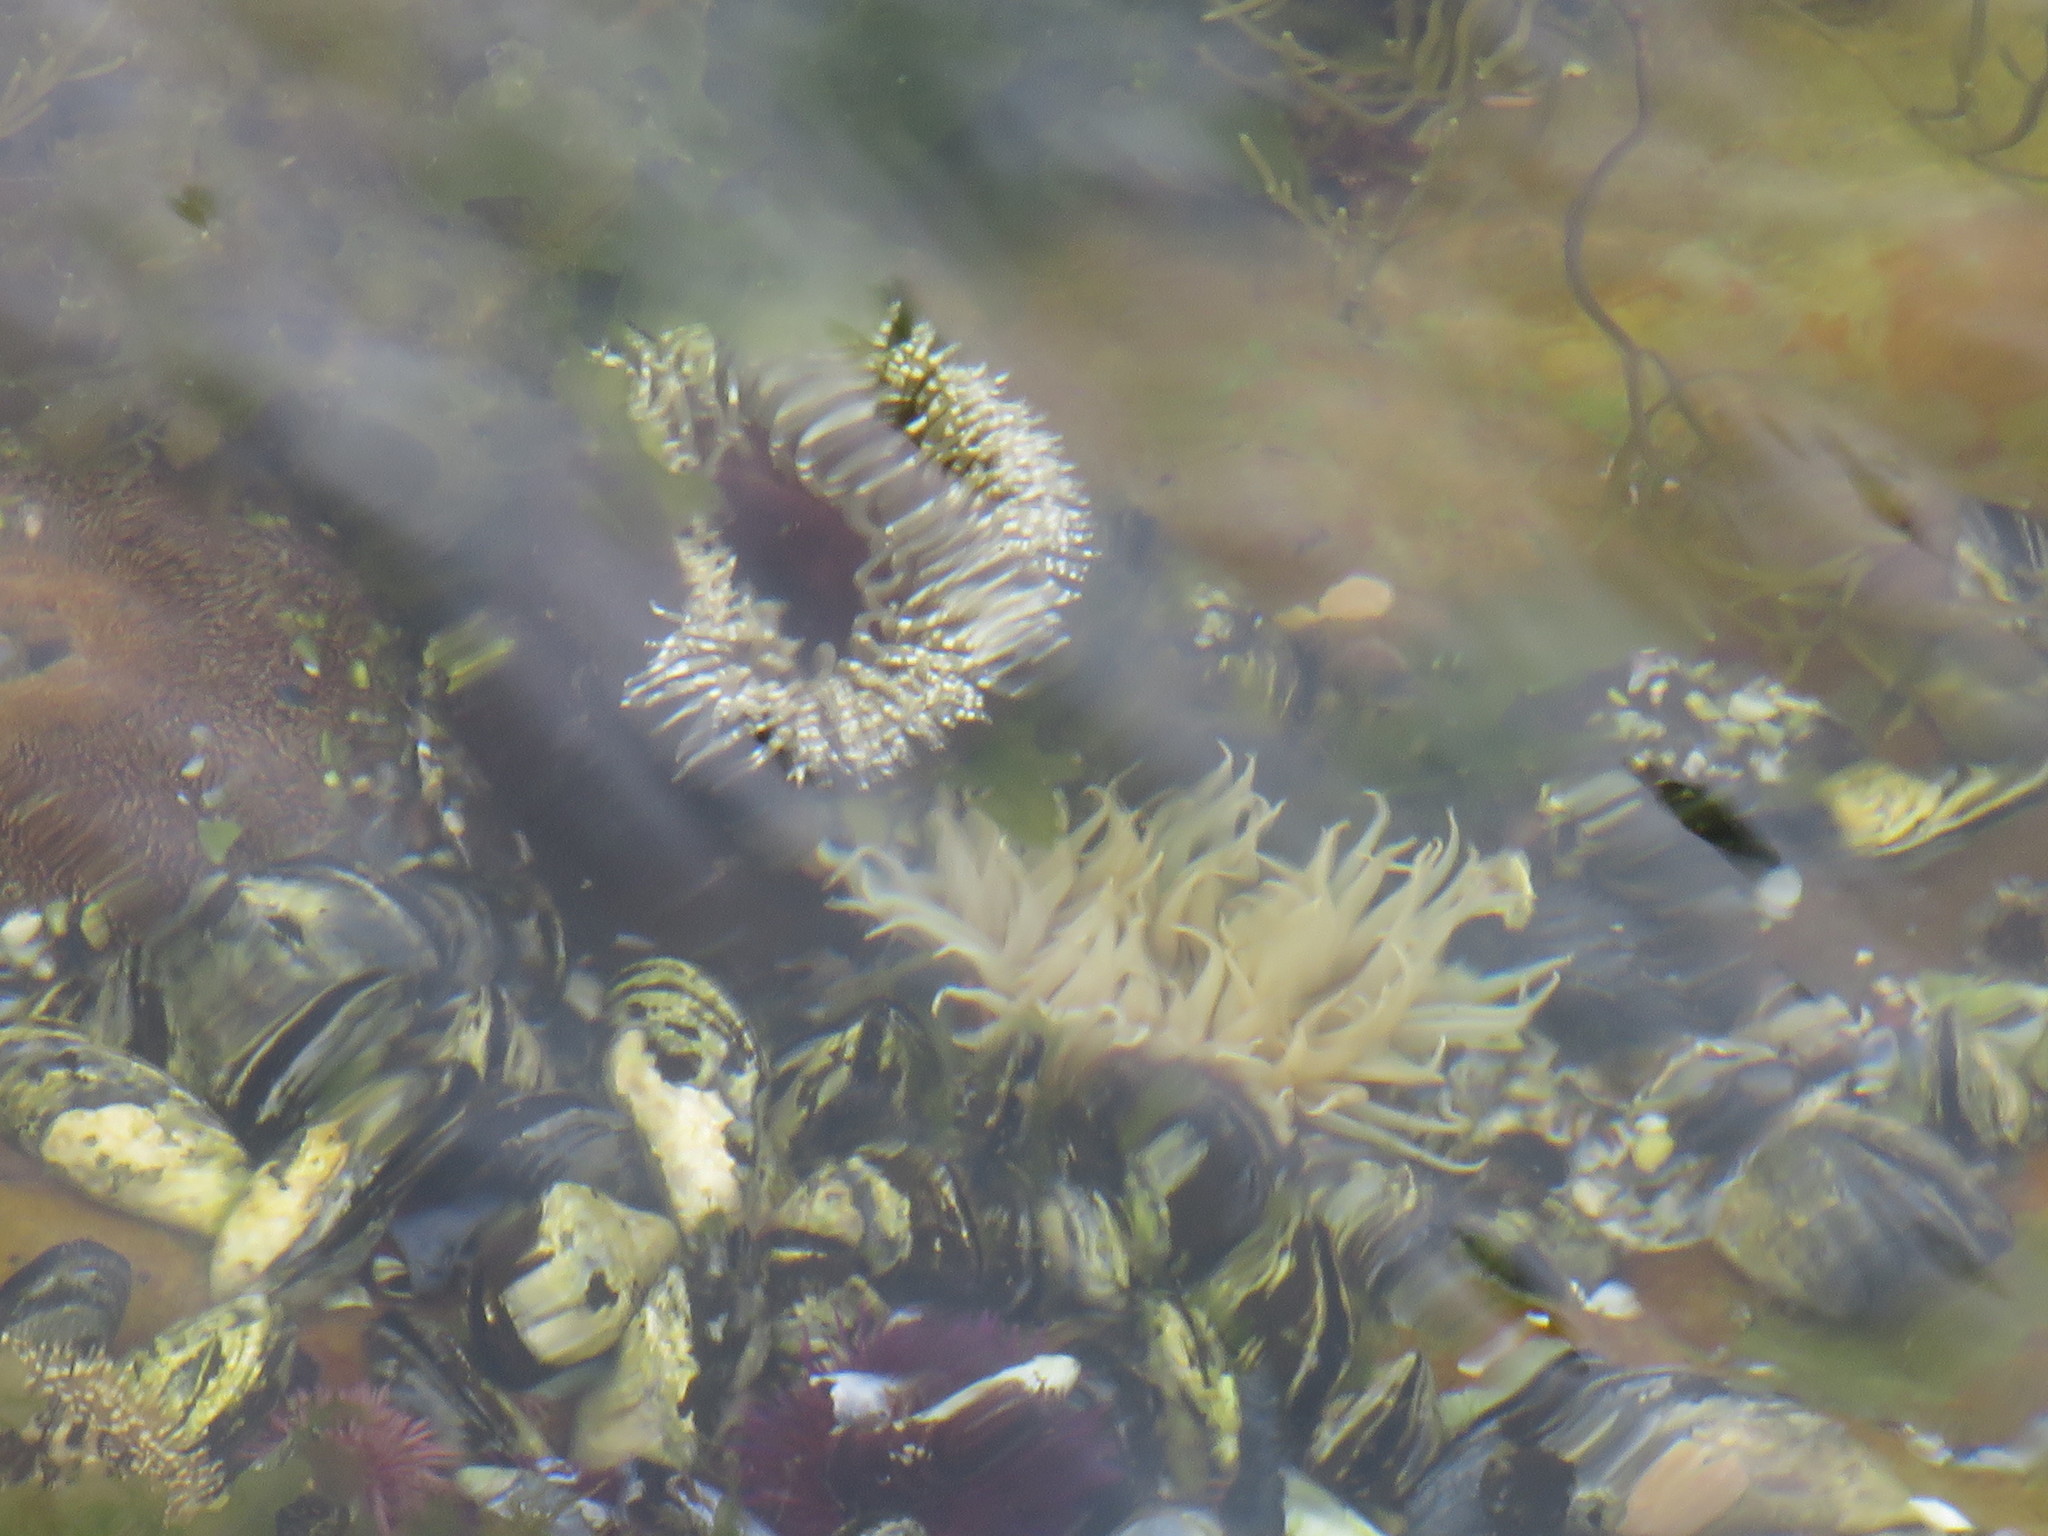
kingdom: Animalia
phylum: Cnidaria
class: Anthozoa
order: Actiniaria
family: Actiniidae
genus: Bunodactis
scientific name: Bunodactis reynaudi
